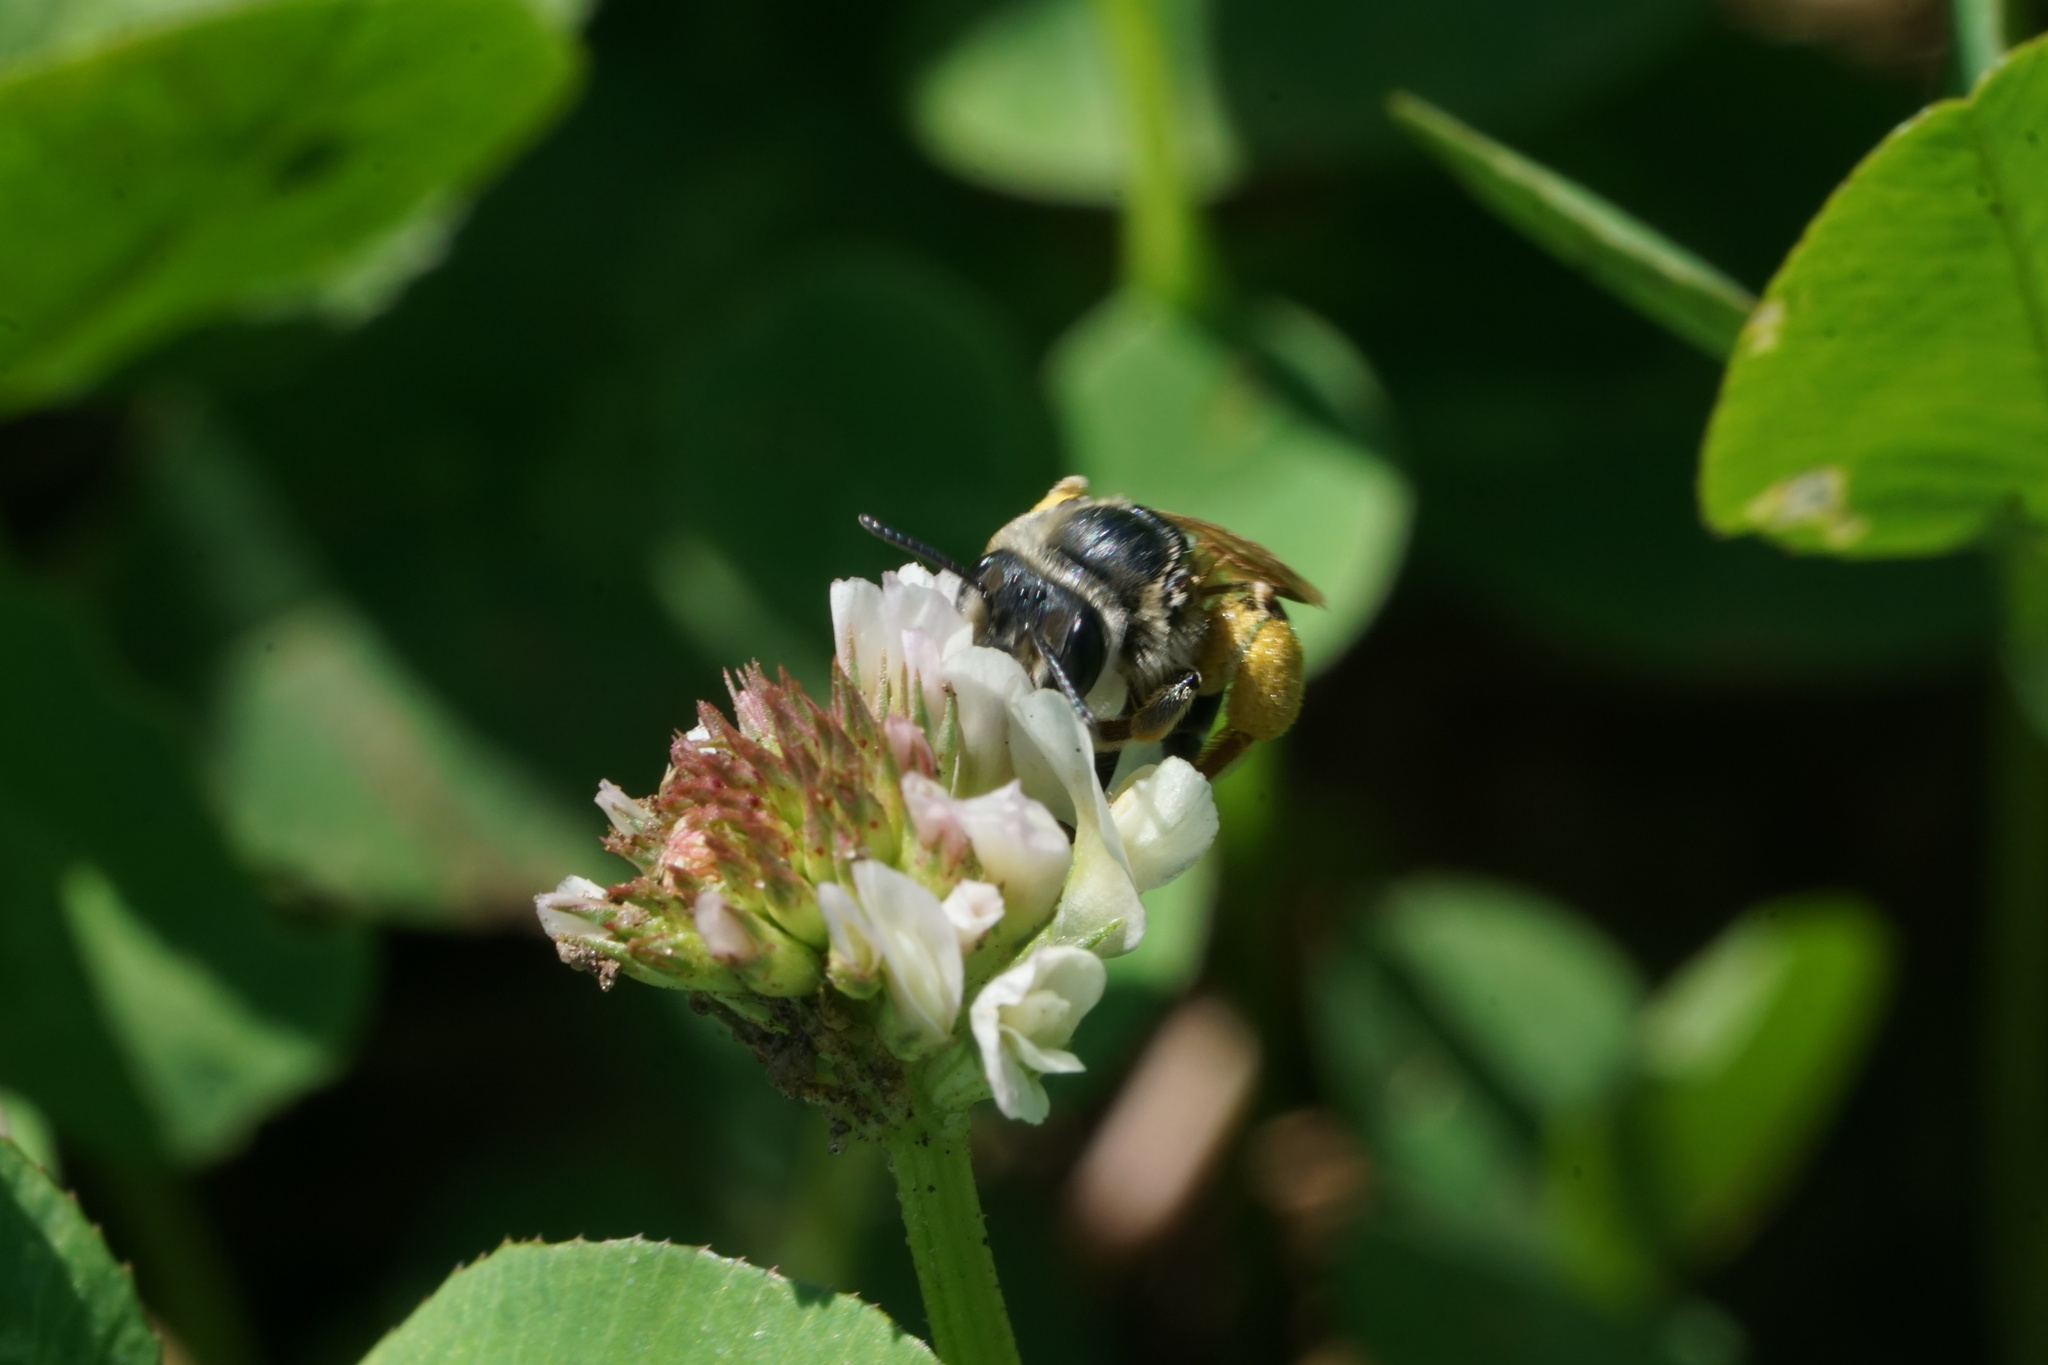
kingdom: Animalia
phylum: Arthropoda
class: Insecta
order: Hymenoptera
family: Andrenidae
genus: Andrena
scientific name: Andrena wilkella
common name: Wilke's mining bee
